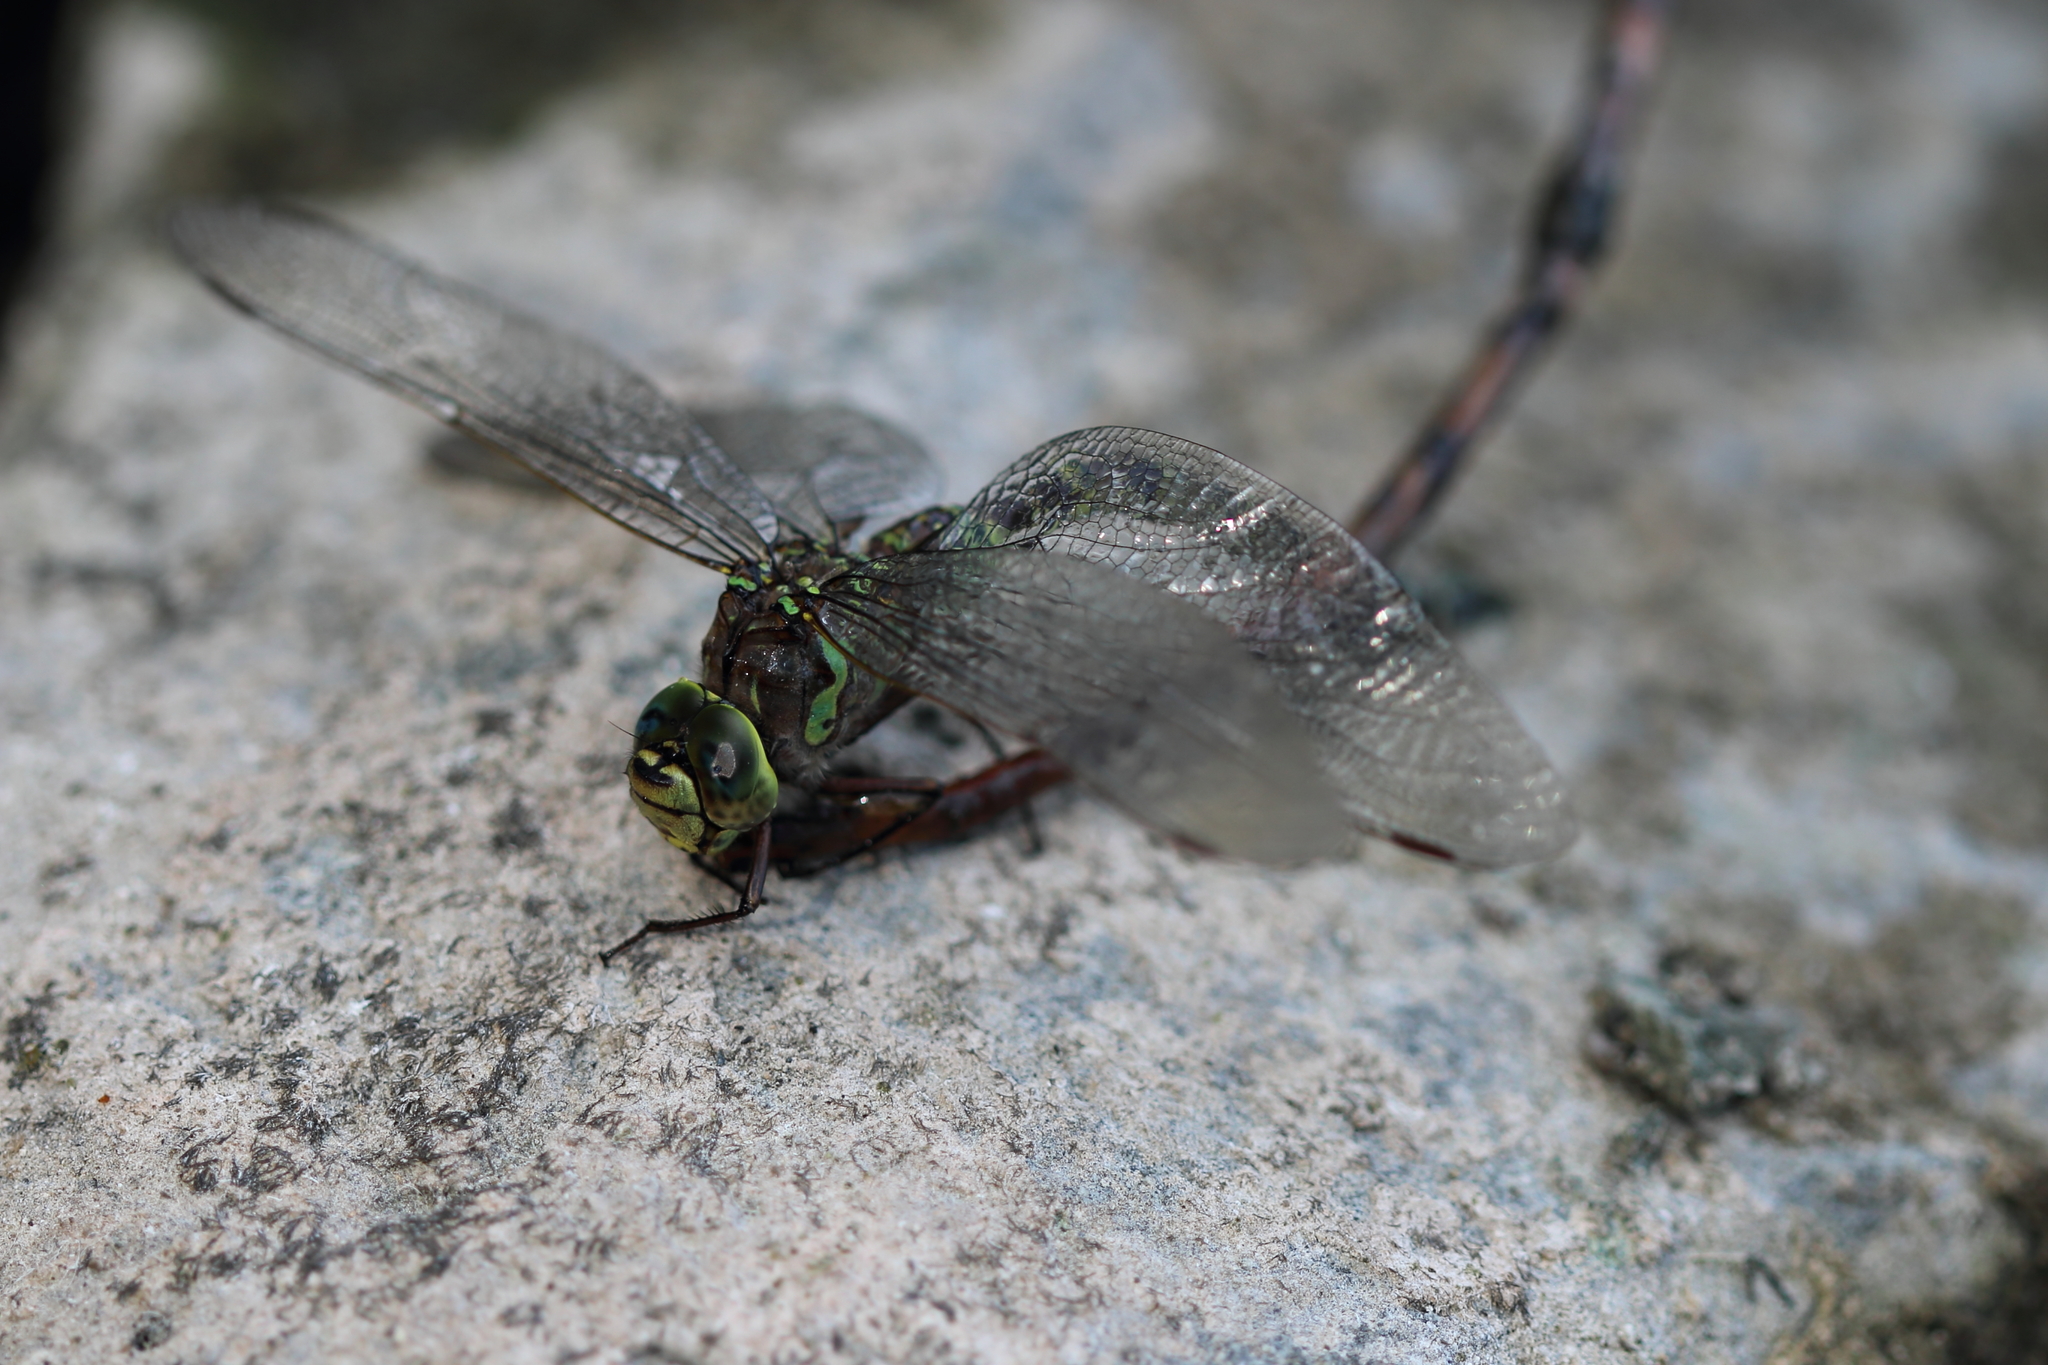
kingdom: Animalia
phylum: Arthropoda
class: Insecta
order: Odonata
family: Aeshnidae
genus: Aeshna
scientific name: Aeshna eremita
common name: Lake darner
